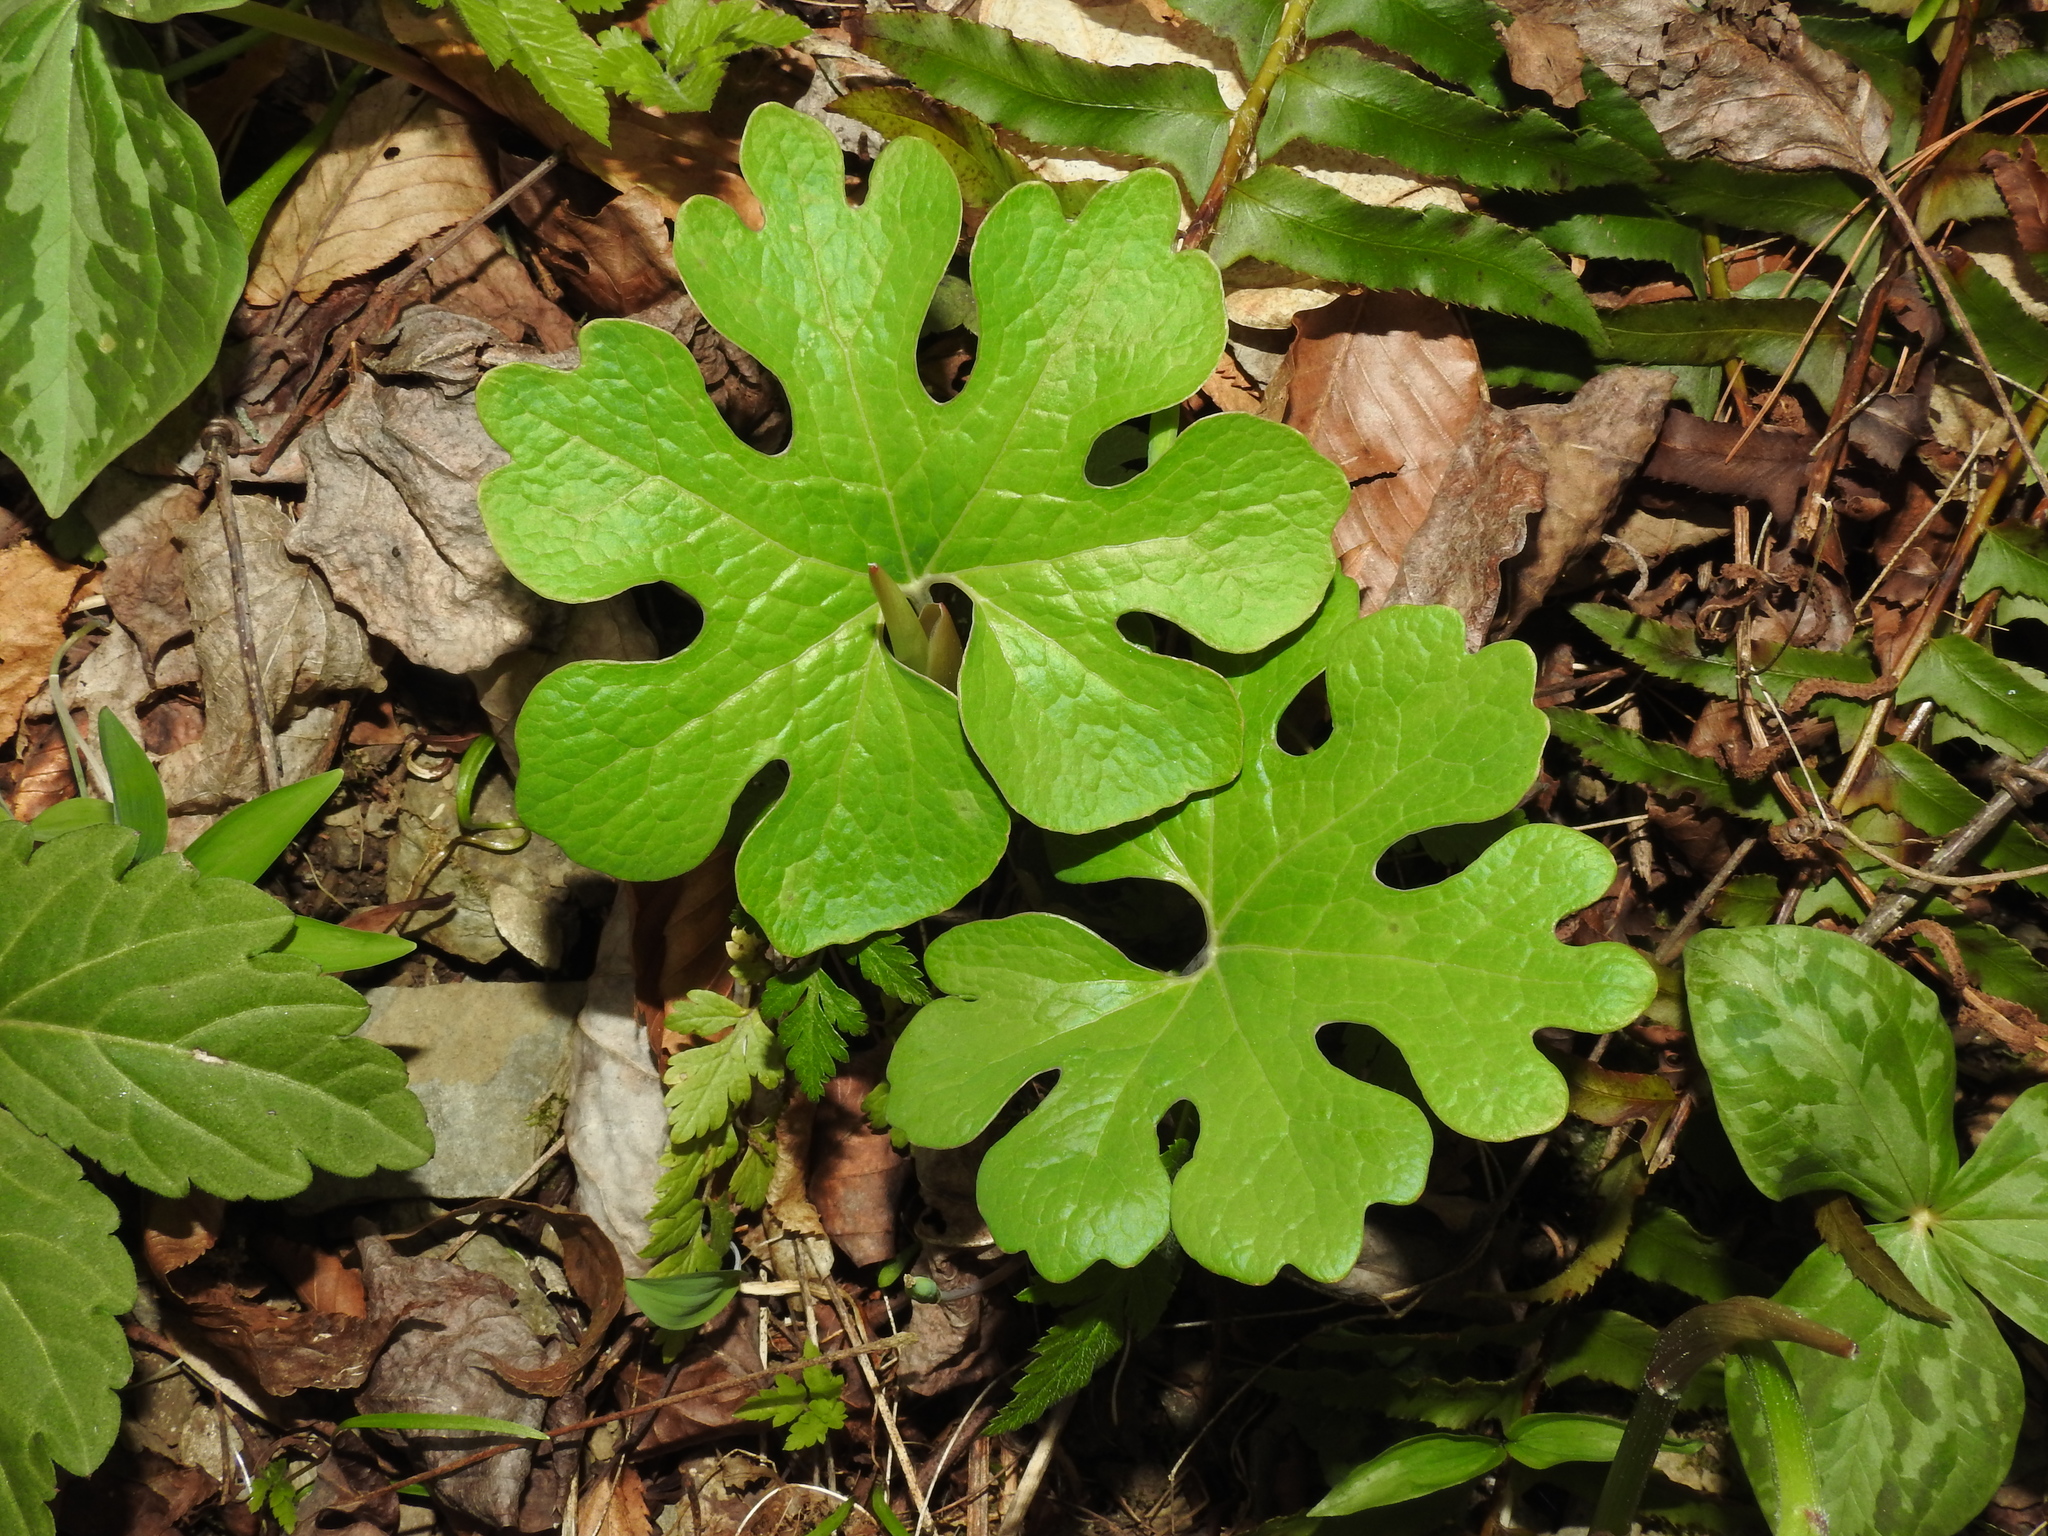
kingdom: Plantae
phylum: Tracheophyta
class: Magnoliopsida
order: Ranunculales
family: Papaveraceae
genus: Sanguinaria
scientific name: Sanguinaria canadensis
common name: Bloodroot
